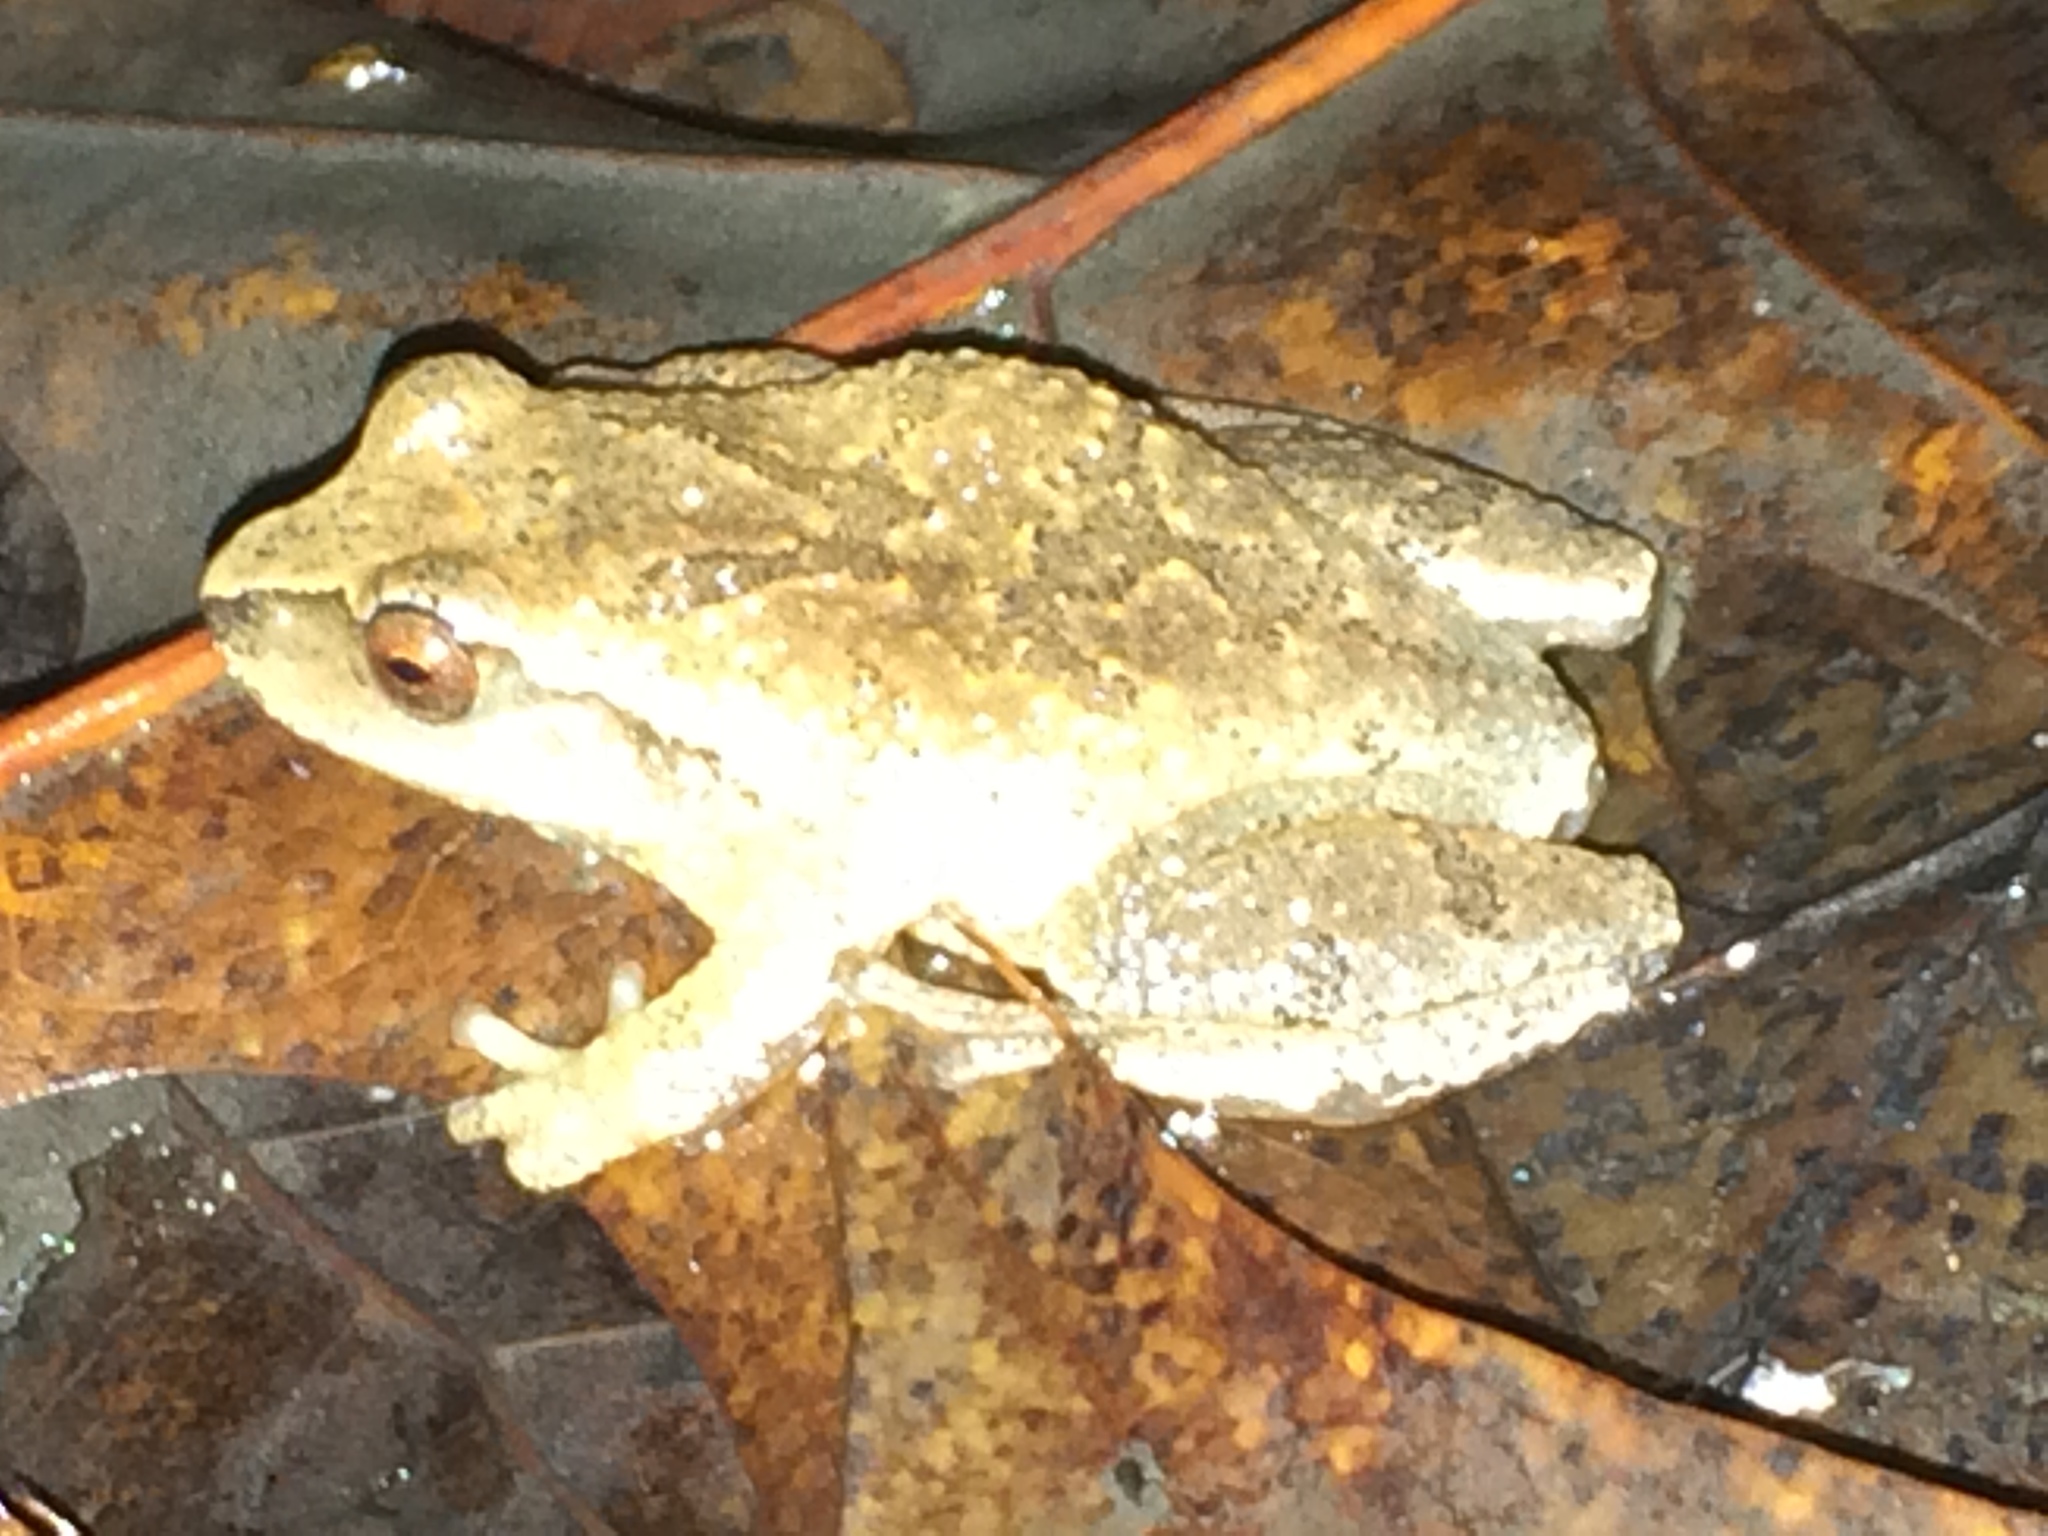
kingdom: Animalia
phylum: Chordata
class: Amphibia
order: Anura
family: Hylidae
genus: Pseudacris
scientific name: Pseudacris crucifer
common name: Spring peeper
